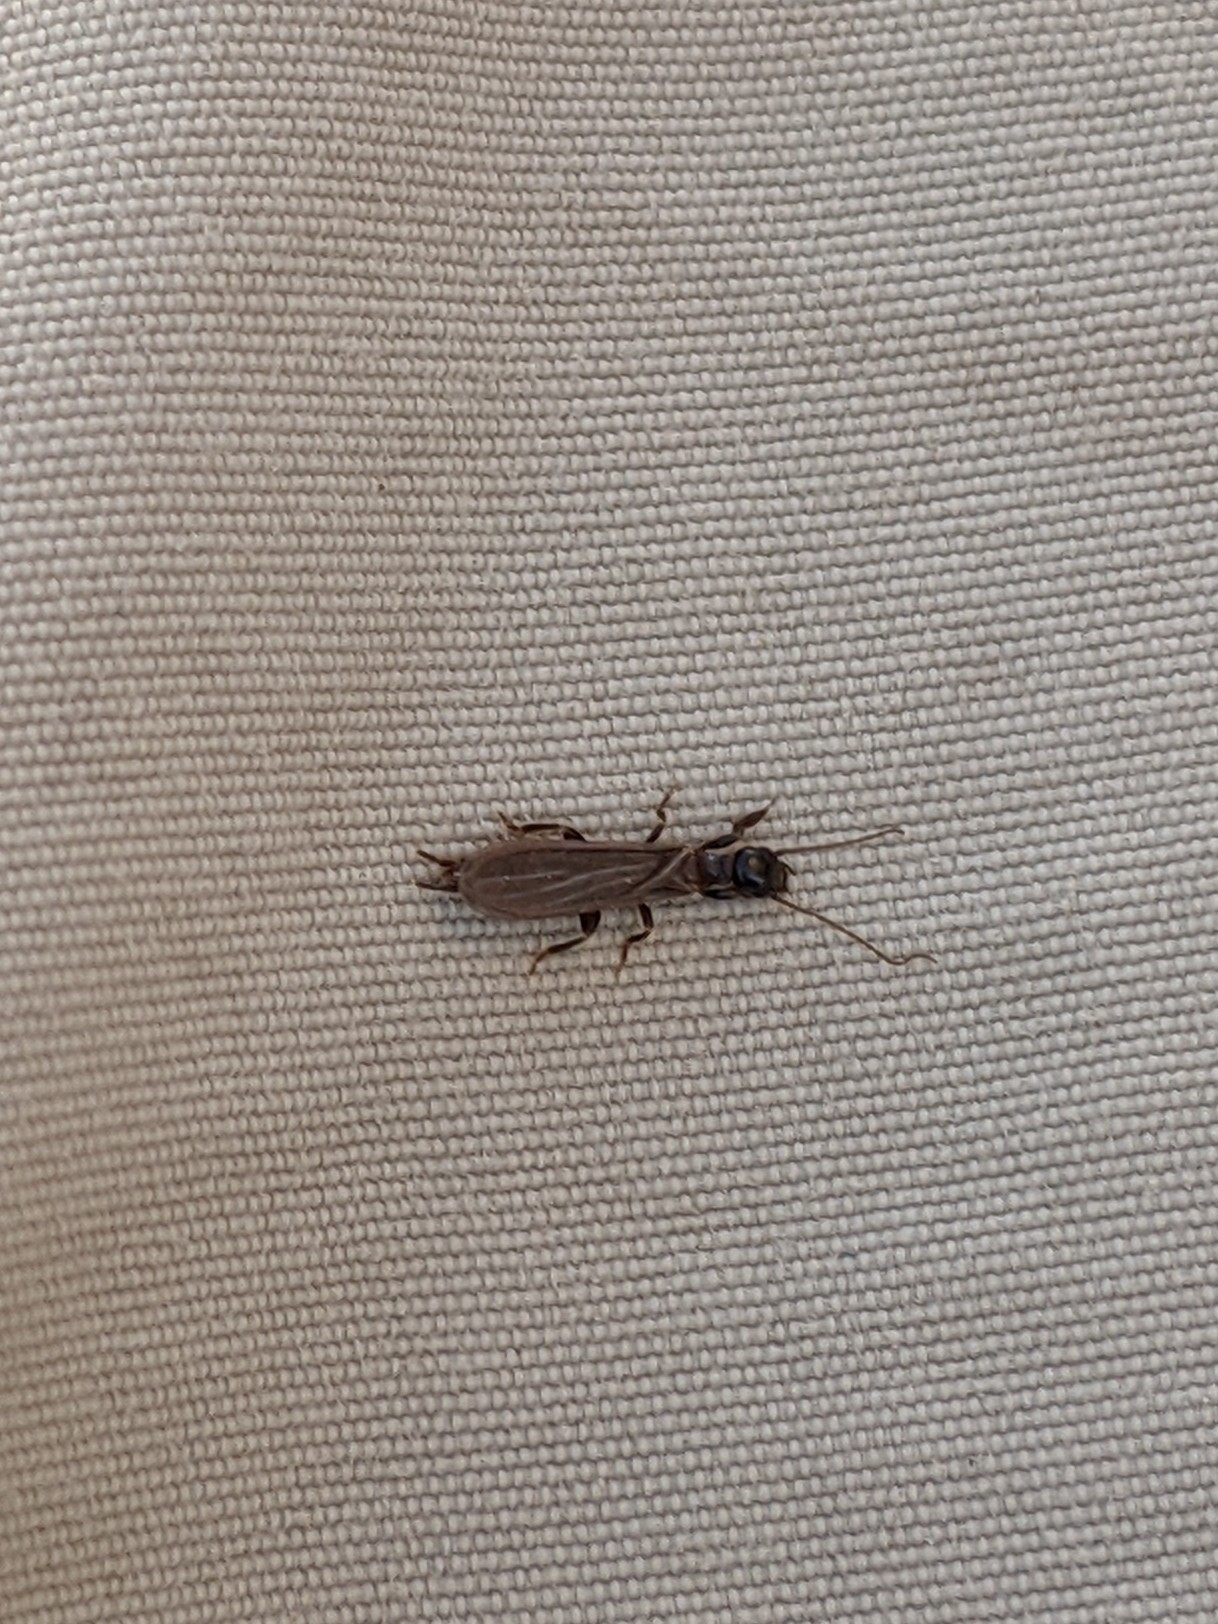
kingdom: Animalia
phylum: Arthropoda
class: Insecta
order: Embioptera
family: Oligotomidae
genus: Oligotoma
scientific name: Oligotoma nigra
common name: Black webspinner
